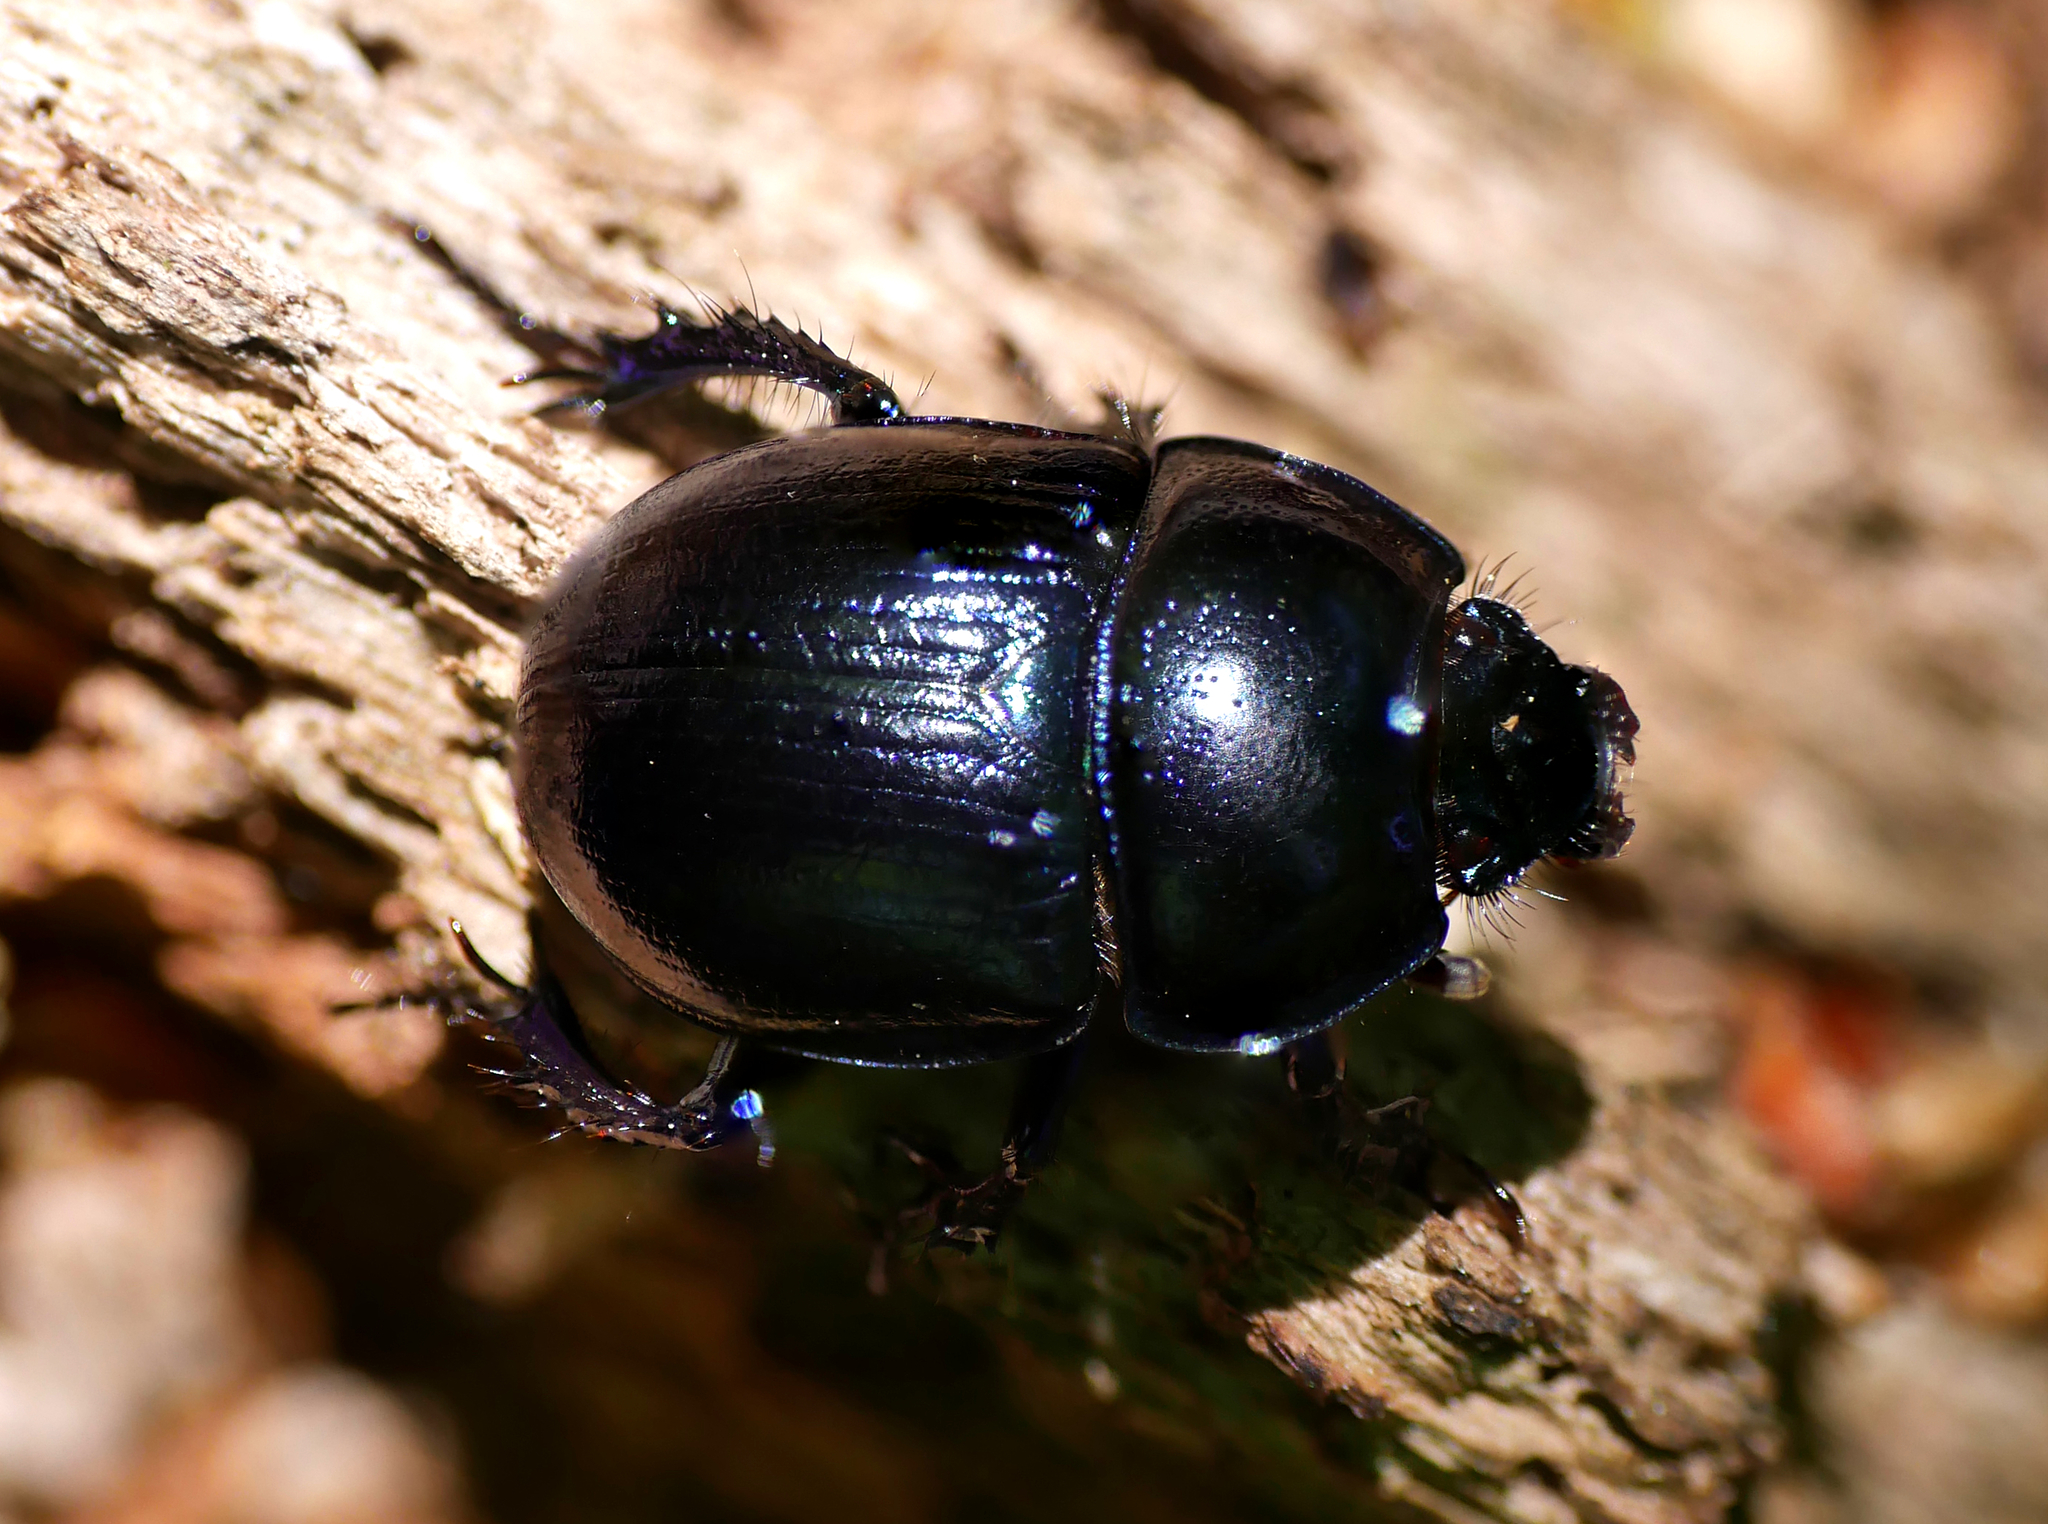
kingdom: Animalia
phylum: Arthropoda
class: Insecta
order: Coleoptera
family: Geotrupidae
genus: Anoplotrupes
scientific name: Anoplotrupes stercorosus
